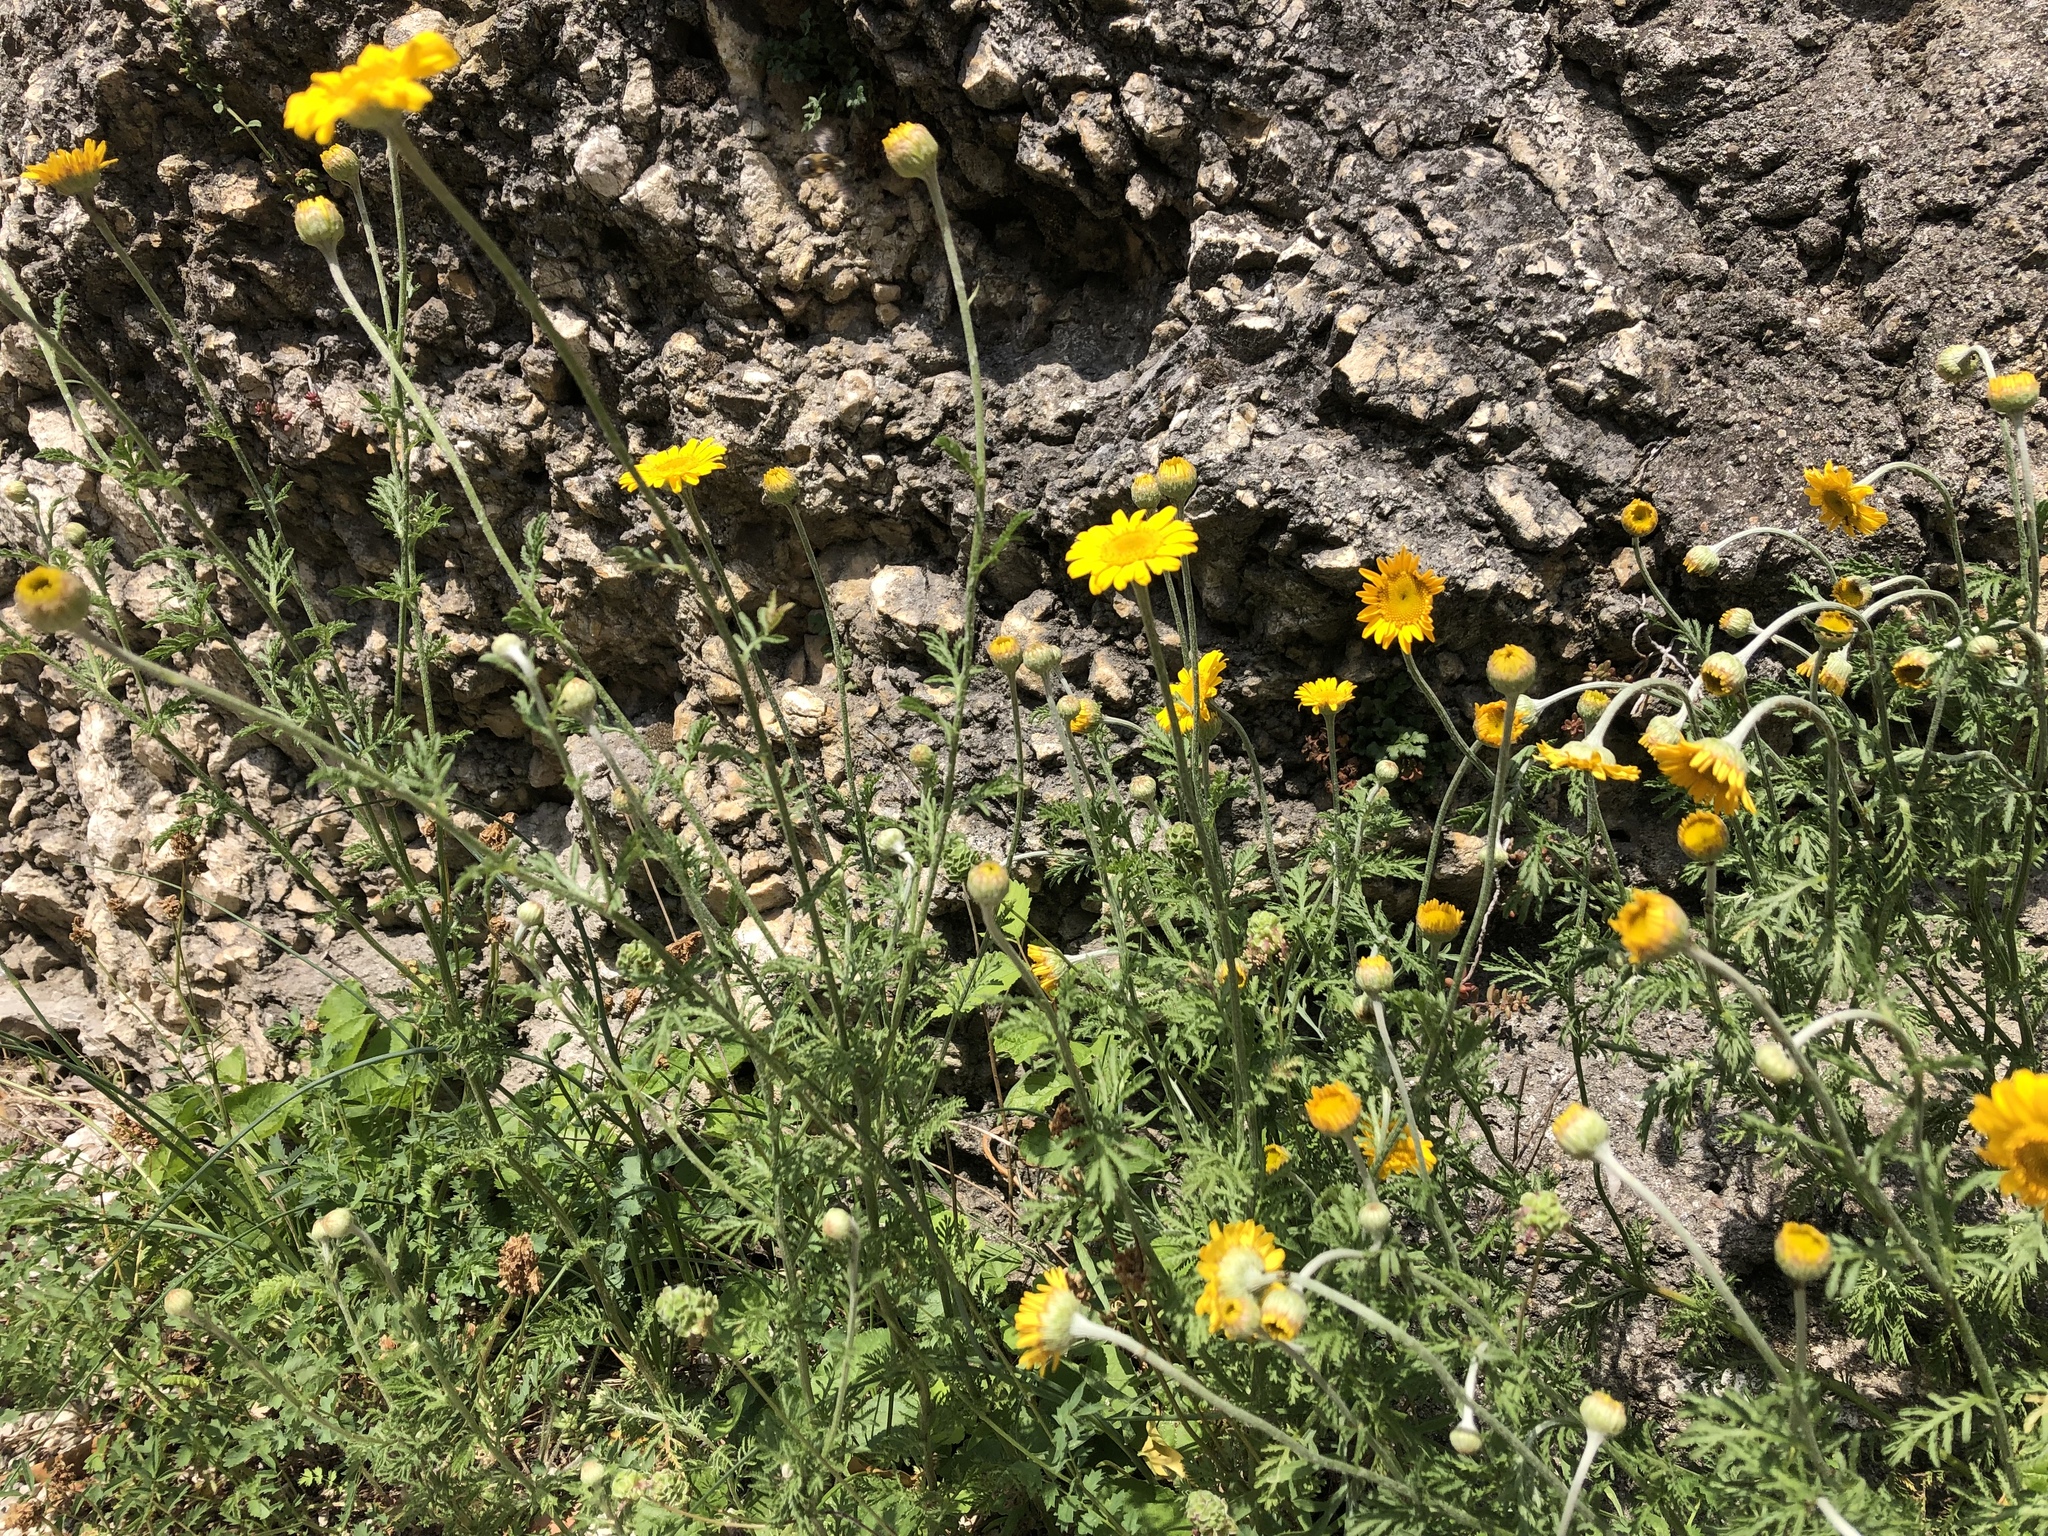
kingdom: Plantae
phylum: Tracheophyta
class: Magnoliopsida
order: Asterales
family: Asteraceae
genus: Cota
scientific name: Cota tinctoria
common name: Golden chamomile
